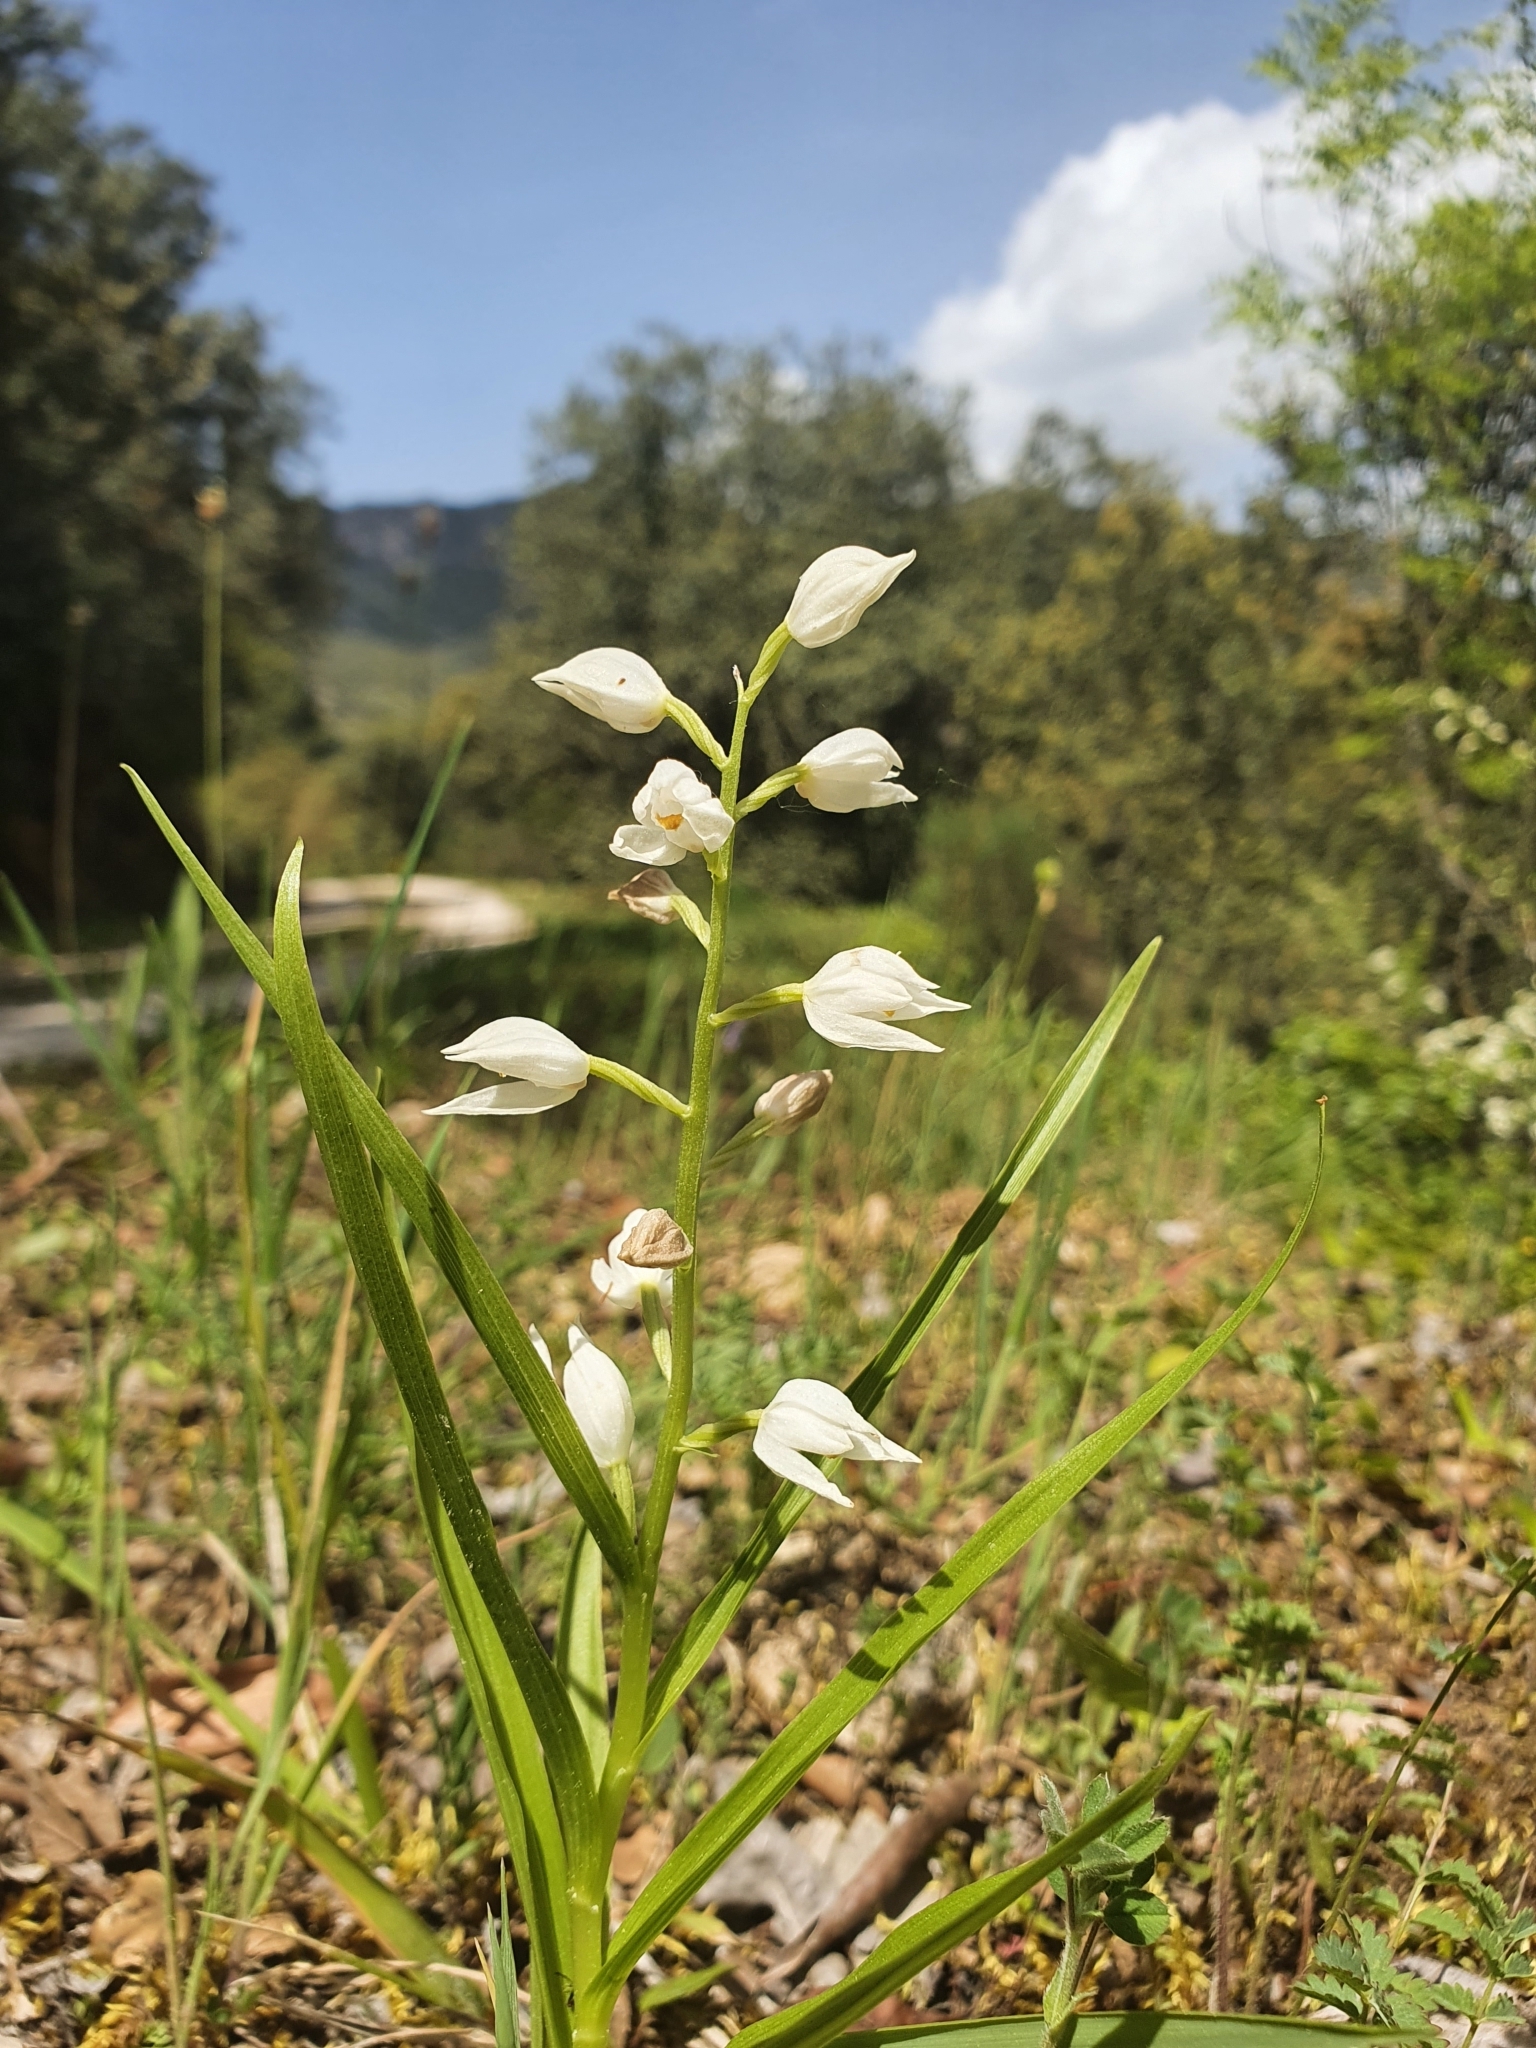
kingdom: Plantae
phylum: Tracheophyta
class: Liliopsida
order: Asparagales
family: Orchidaceae
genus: Cephalanthera
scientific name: Cephalanthera longifolia
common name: Narrow-leaved helleborine
